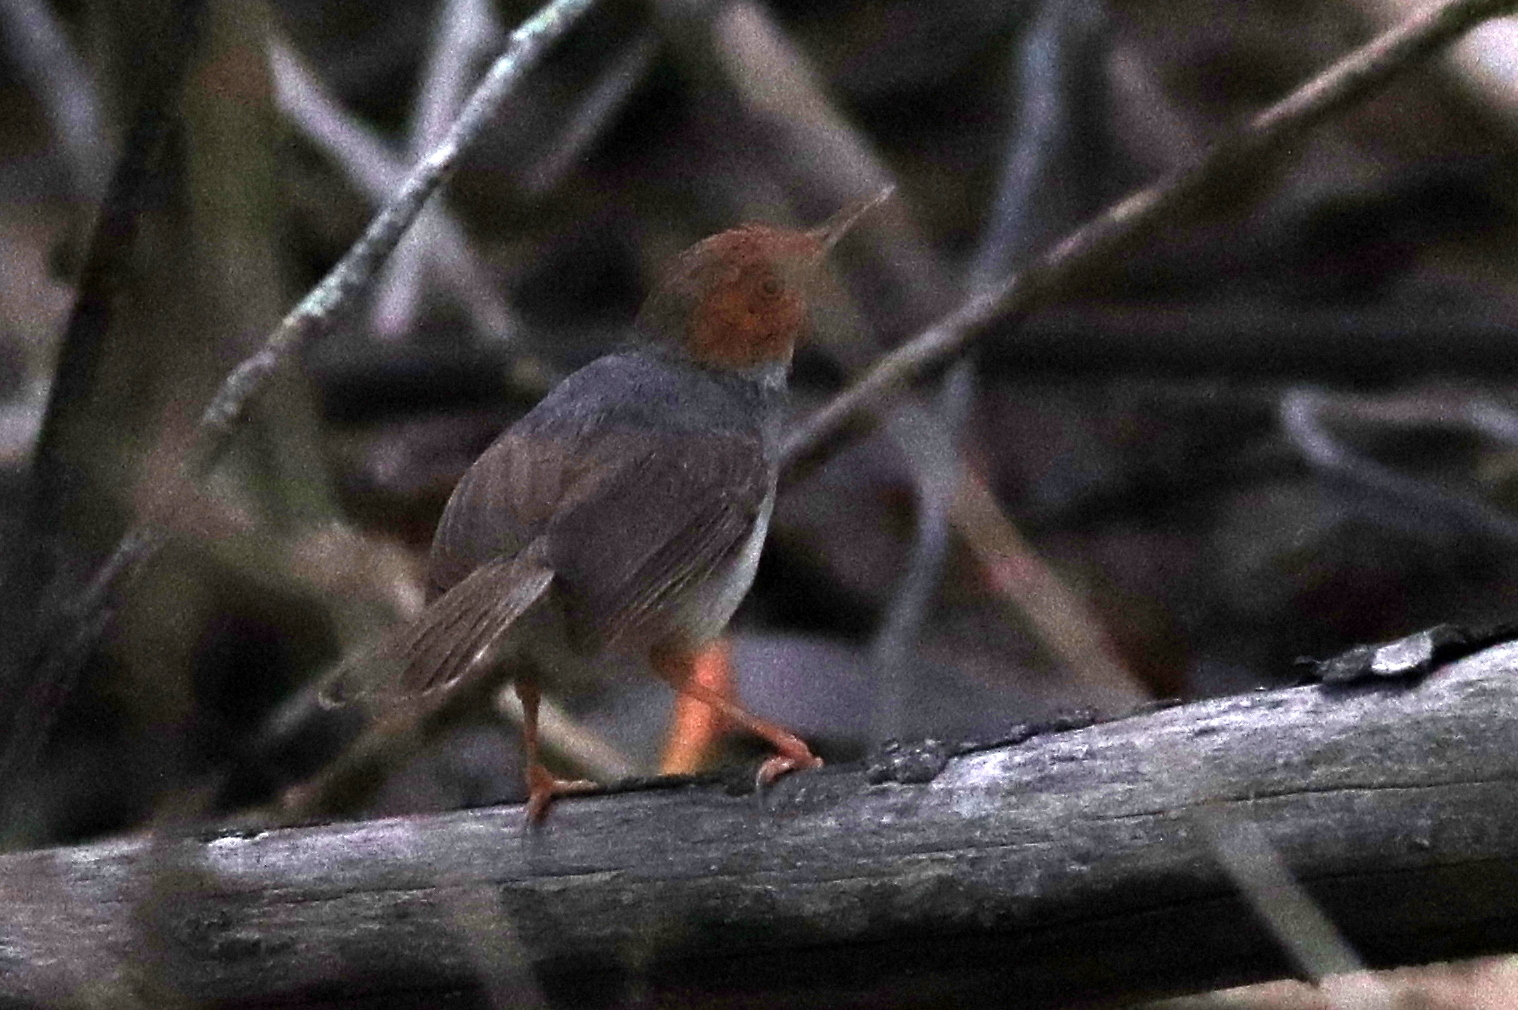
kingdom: Animalia
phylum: Chordata
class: Aves
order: Passeriformes
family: Cisticolidae
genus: Orthotomus
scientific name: Orthotomus ruficeps
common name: Ashy tailorbird
